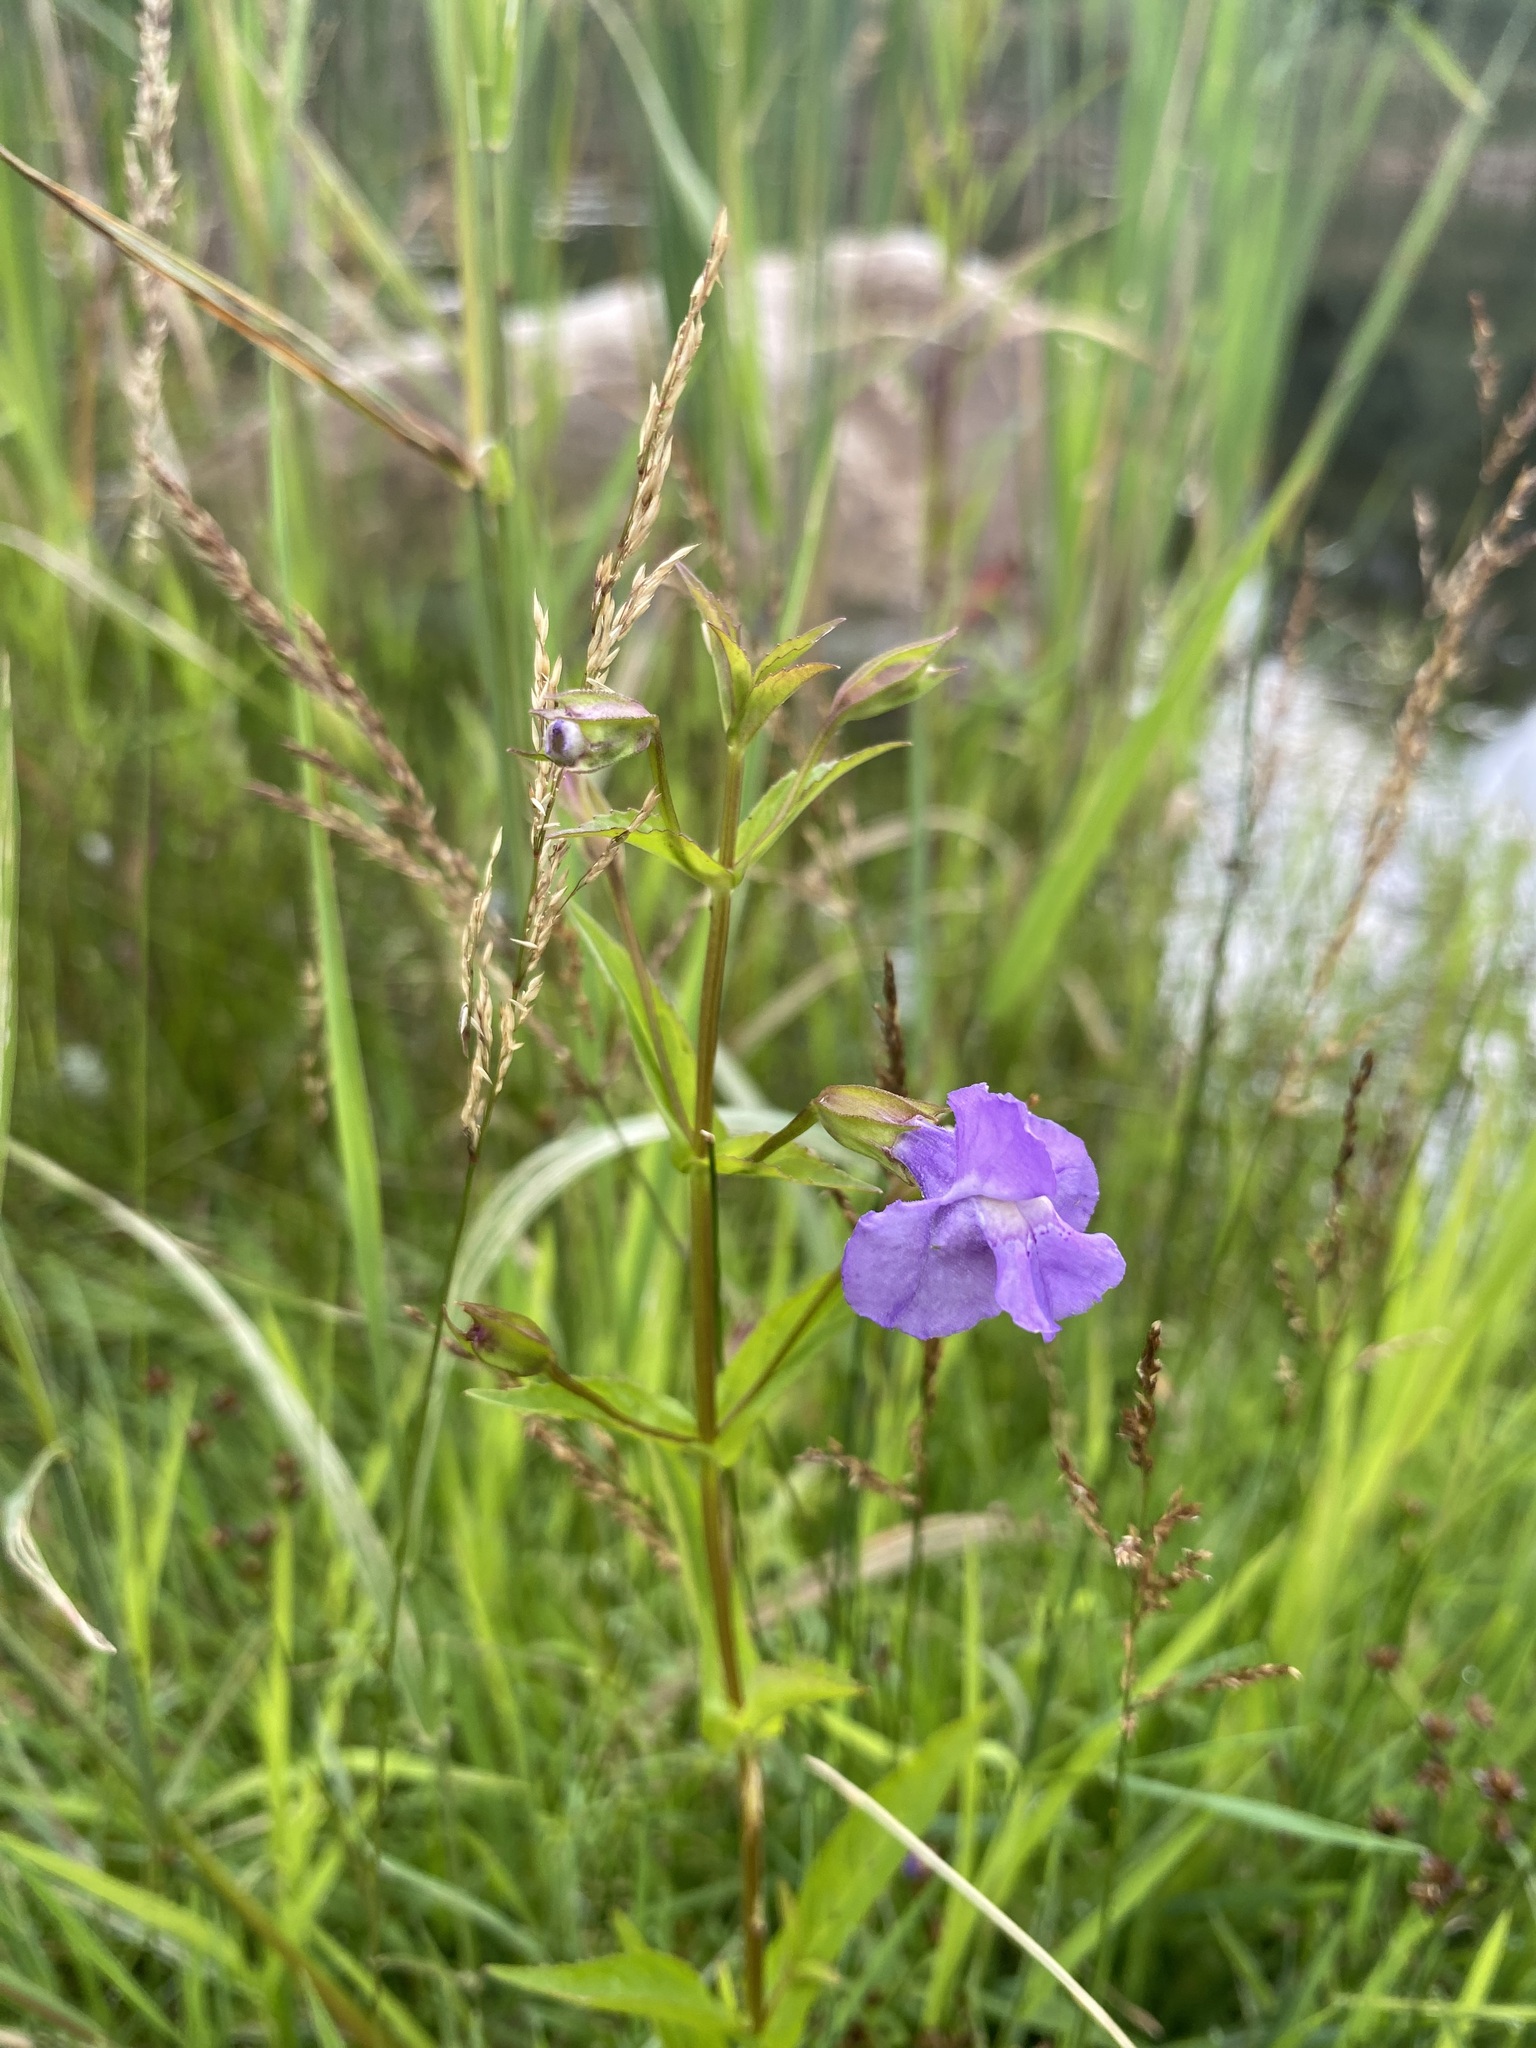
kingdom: Plantae
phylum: Tracheophyta
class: Magnoliopsida
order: Lamiales
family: Phrymaceae
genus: Mimulus
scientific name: Mimulus ringens
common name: Allegheny monkeyflower
